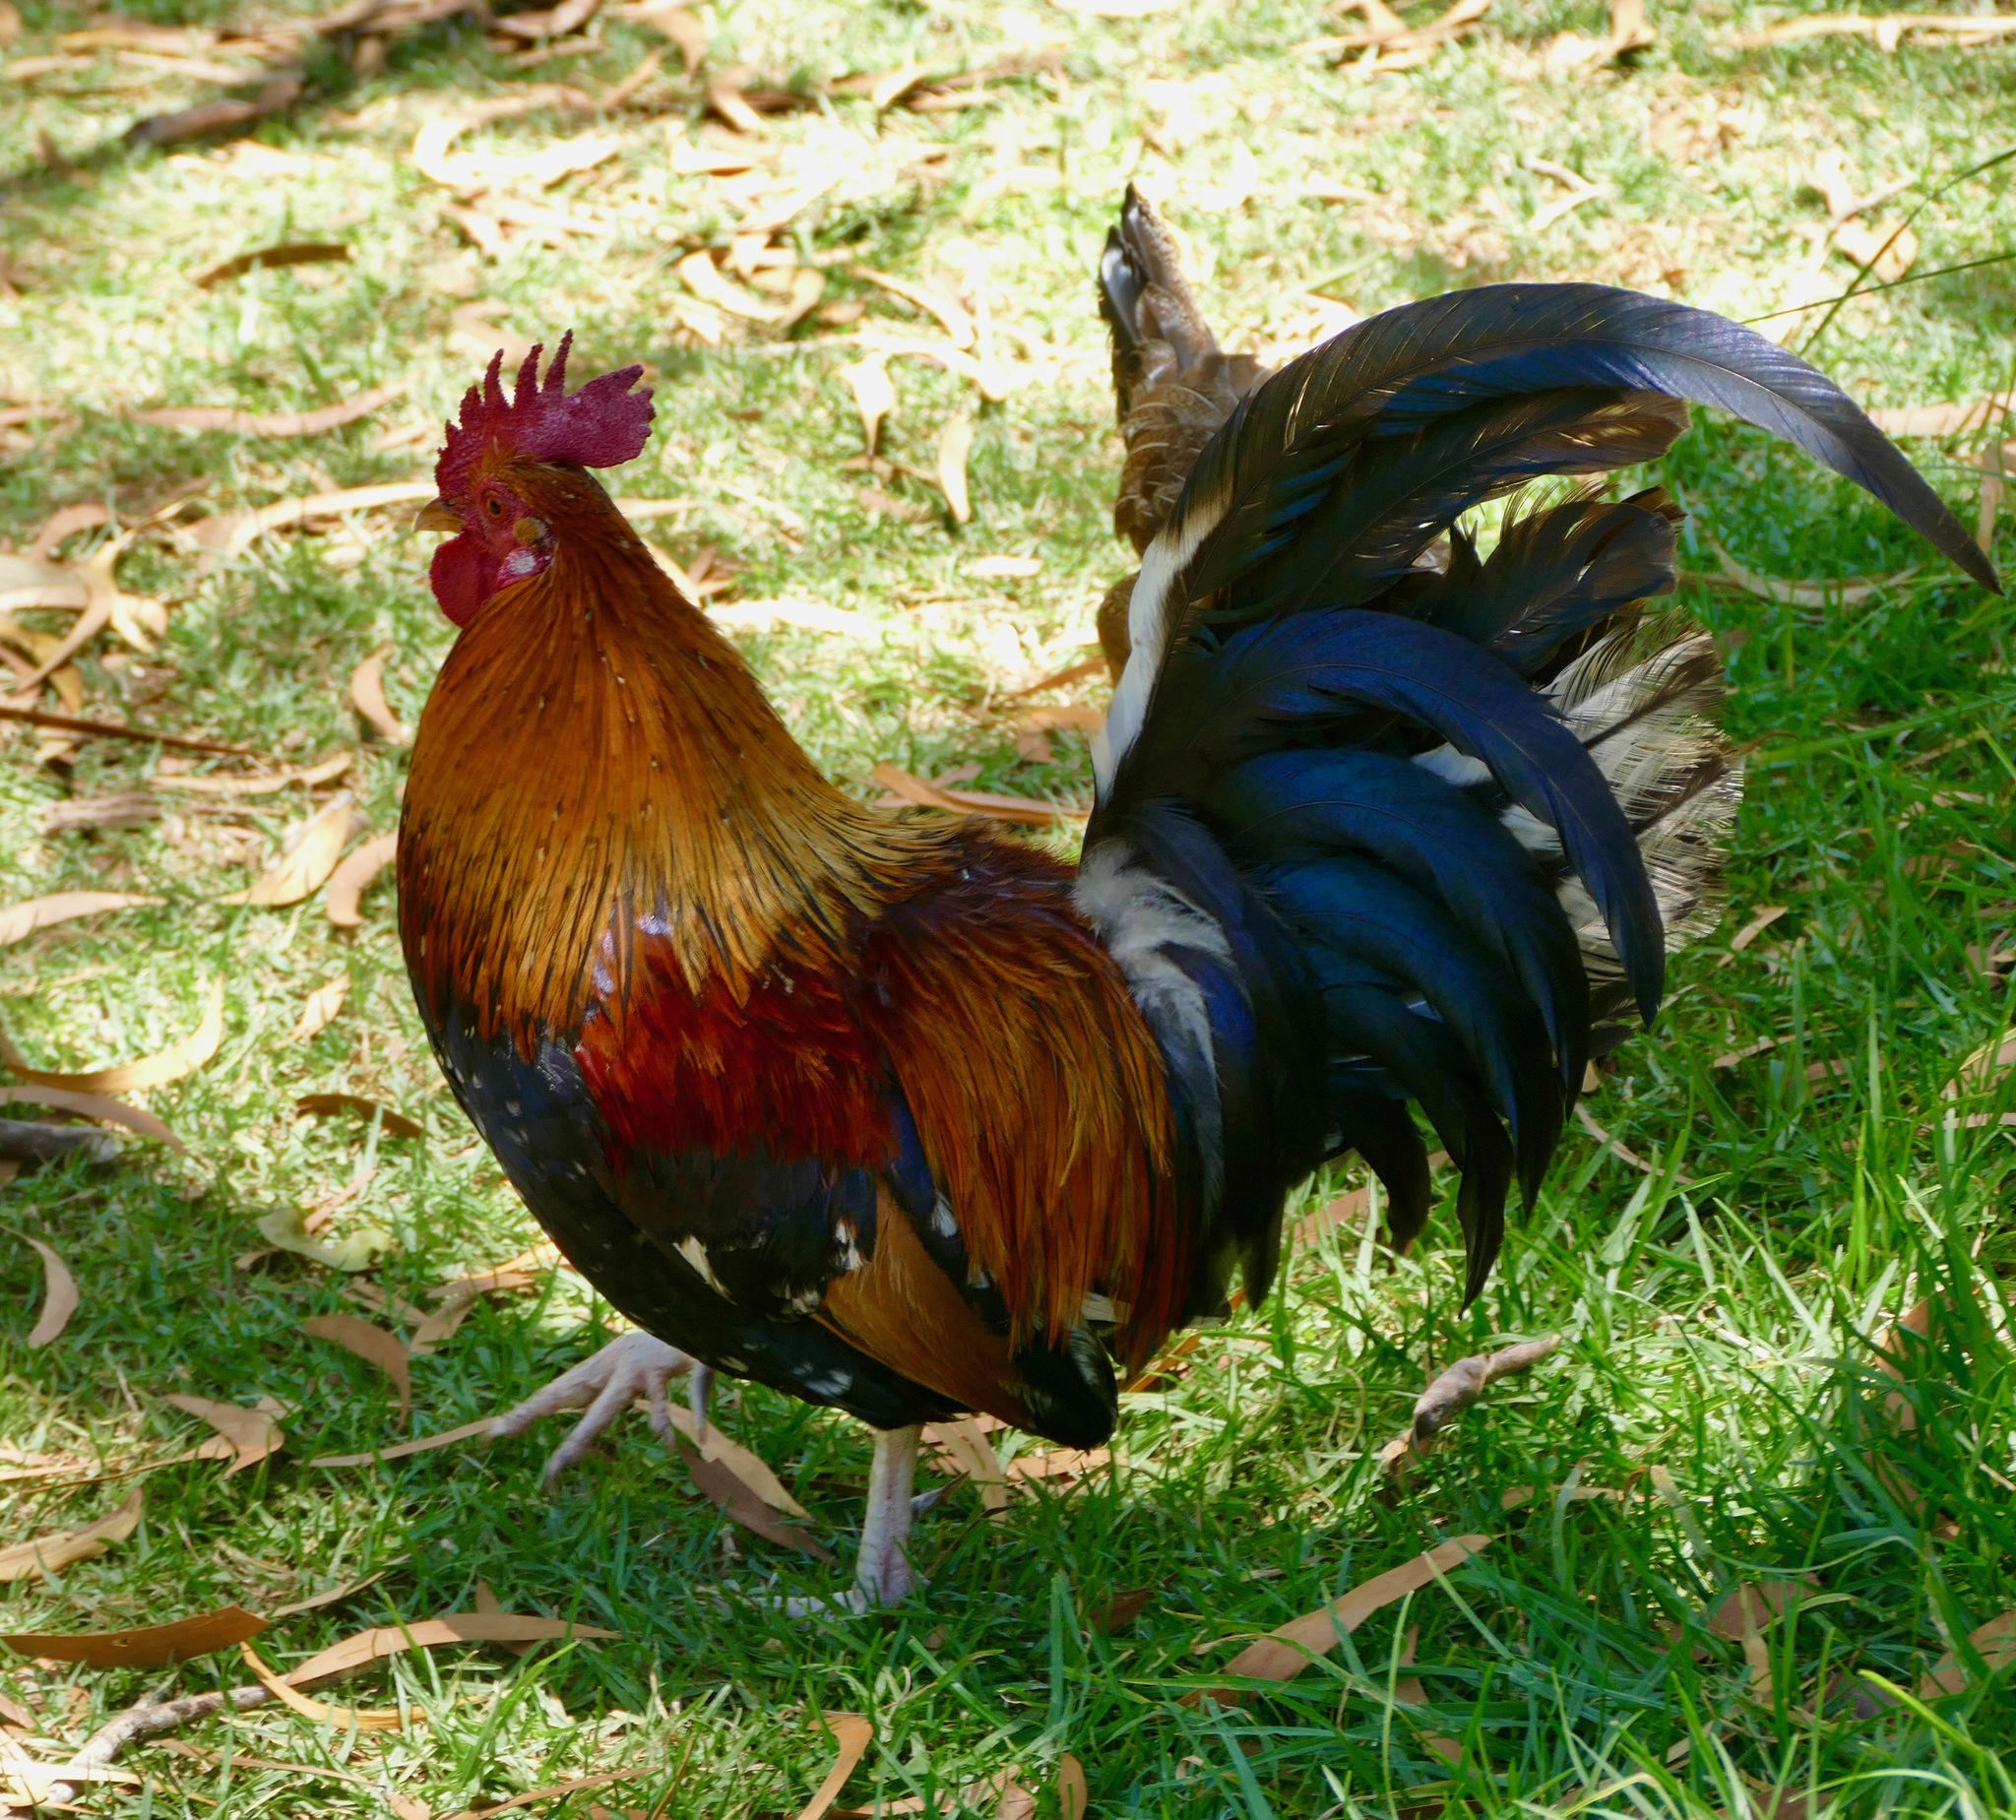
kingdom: Animalia
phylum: Chordata
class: Aves
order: Galliformes
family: Phasianidae
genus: Gallus
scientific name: Gallus gallus
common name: Red junglefowl
